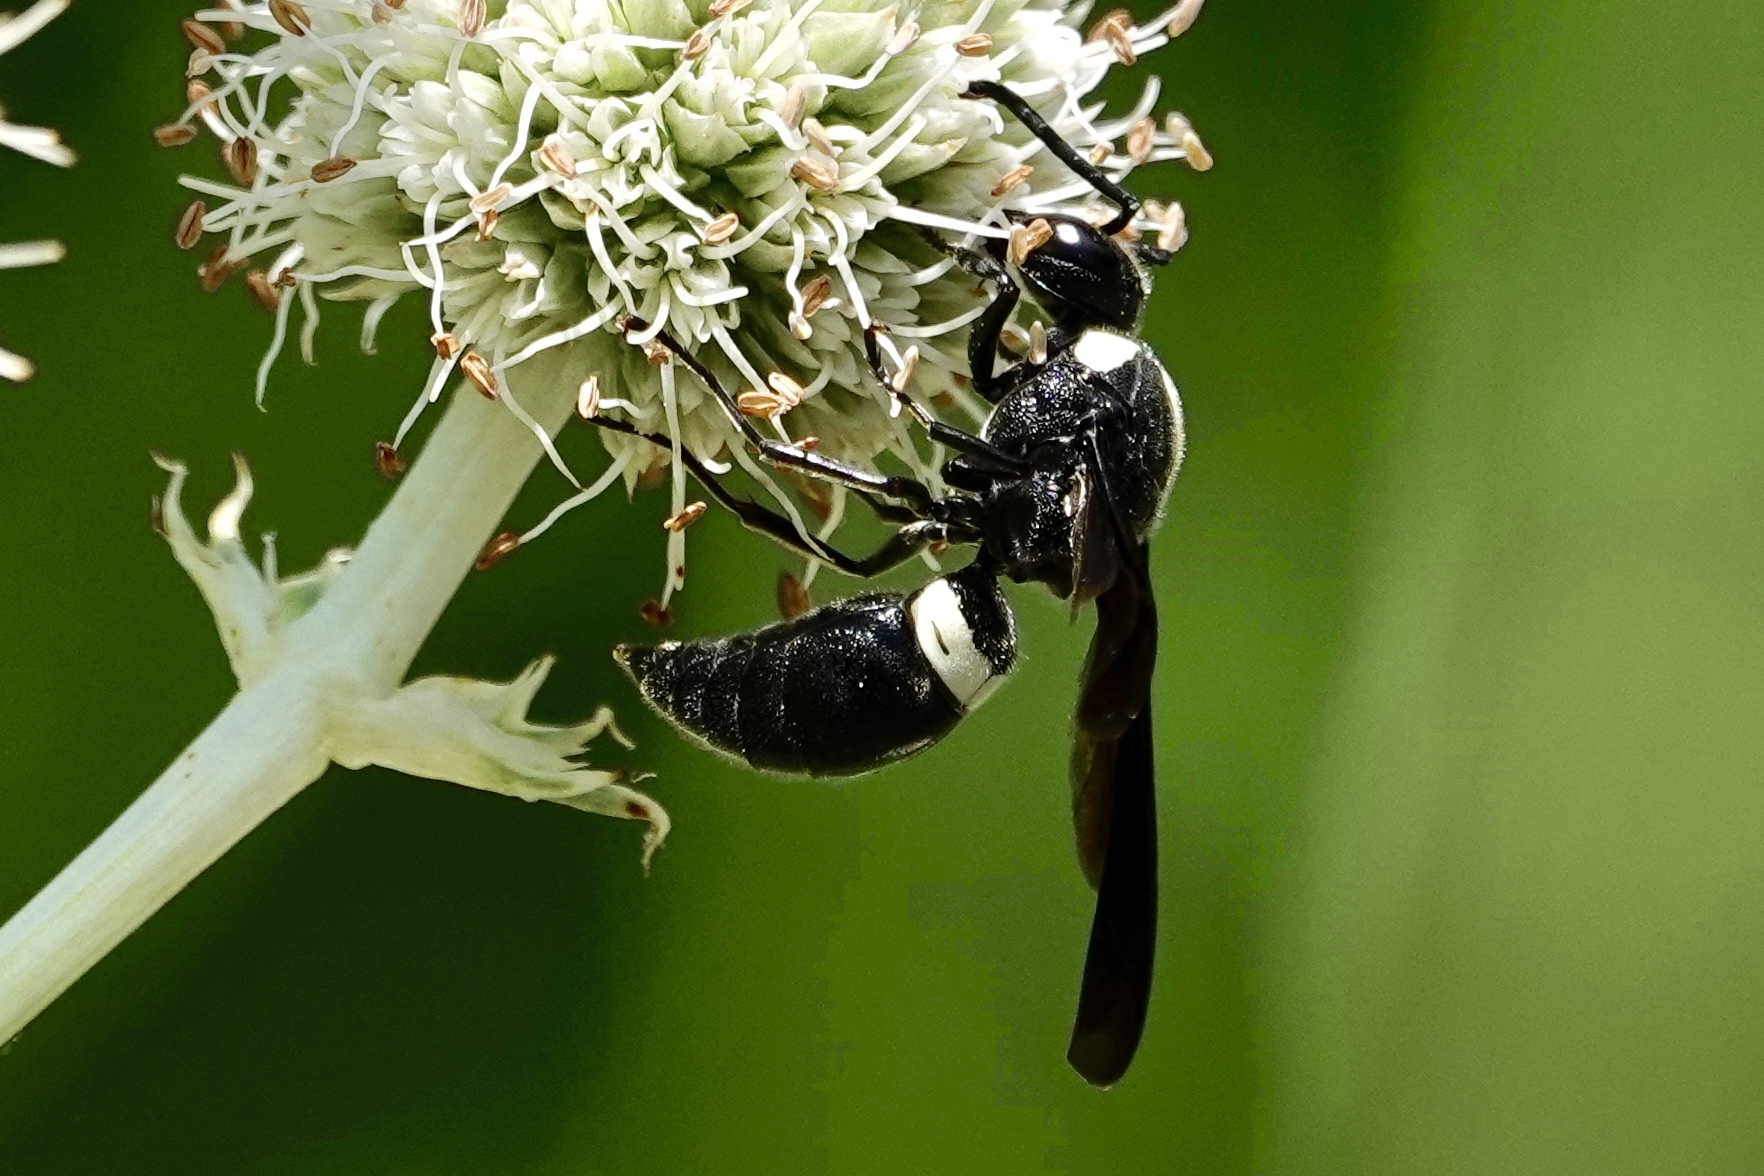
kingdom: Animalia
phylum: Arthropoda
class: Insecta
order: Hymenoptera
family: Eumenidae
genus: Monobia
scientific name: Monobia quadridens
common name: Four-toothed mason wasp
